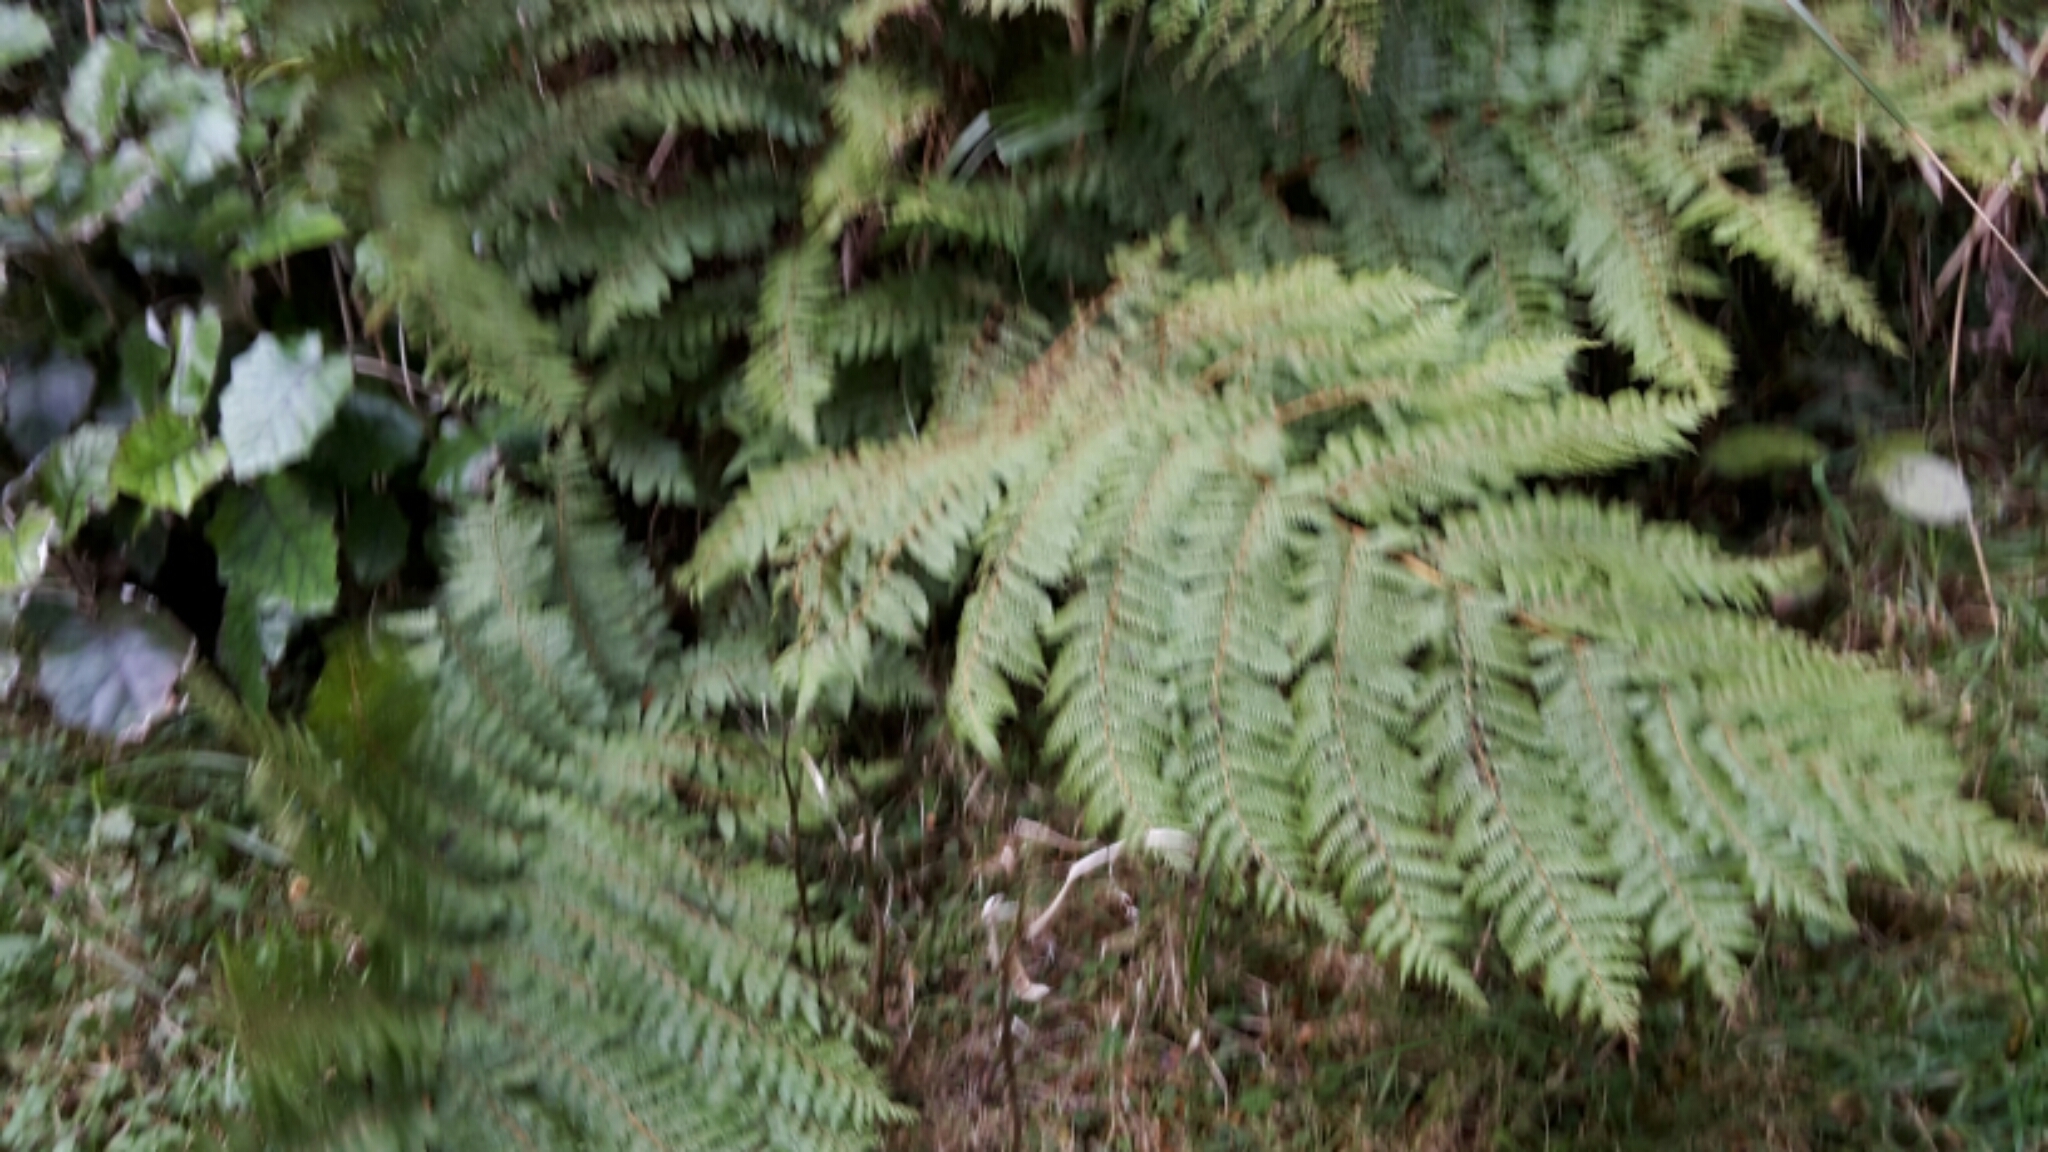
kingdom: Plantae
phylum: Tracheophyta
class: Polypodiopsida
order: Cyatheales
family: Cyatheaceae
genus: Alsophila
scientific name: Alsophila colensoi
